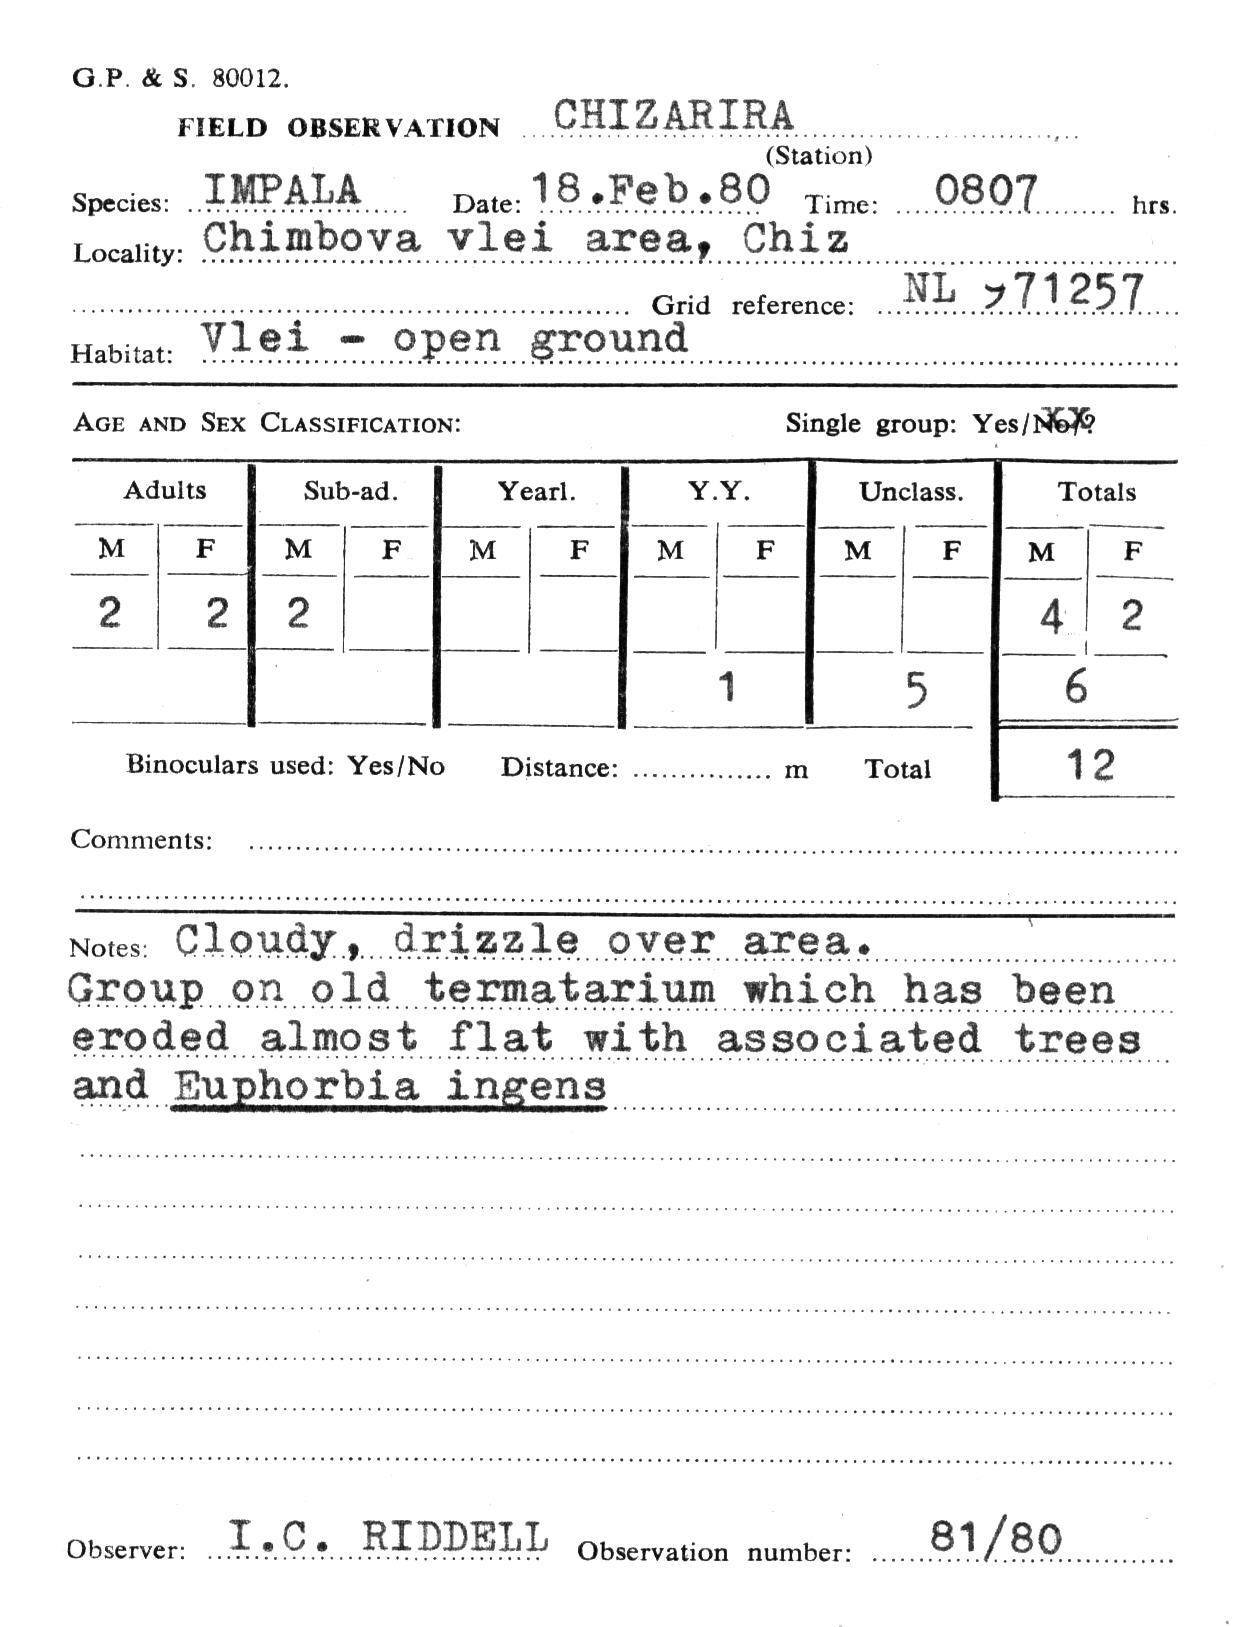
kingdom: Animalia
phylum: Chordata
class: Mammalia
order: Artiodactyla
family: Bovidae
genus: Aepyceros
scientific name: Aepyceros melampus
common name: Impala
